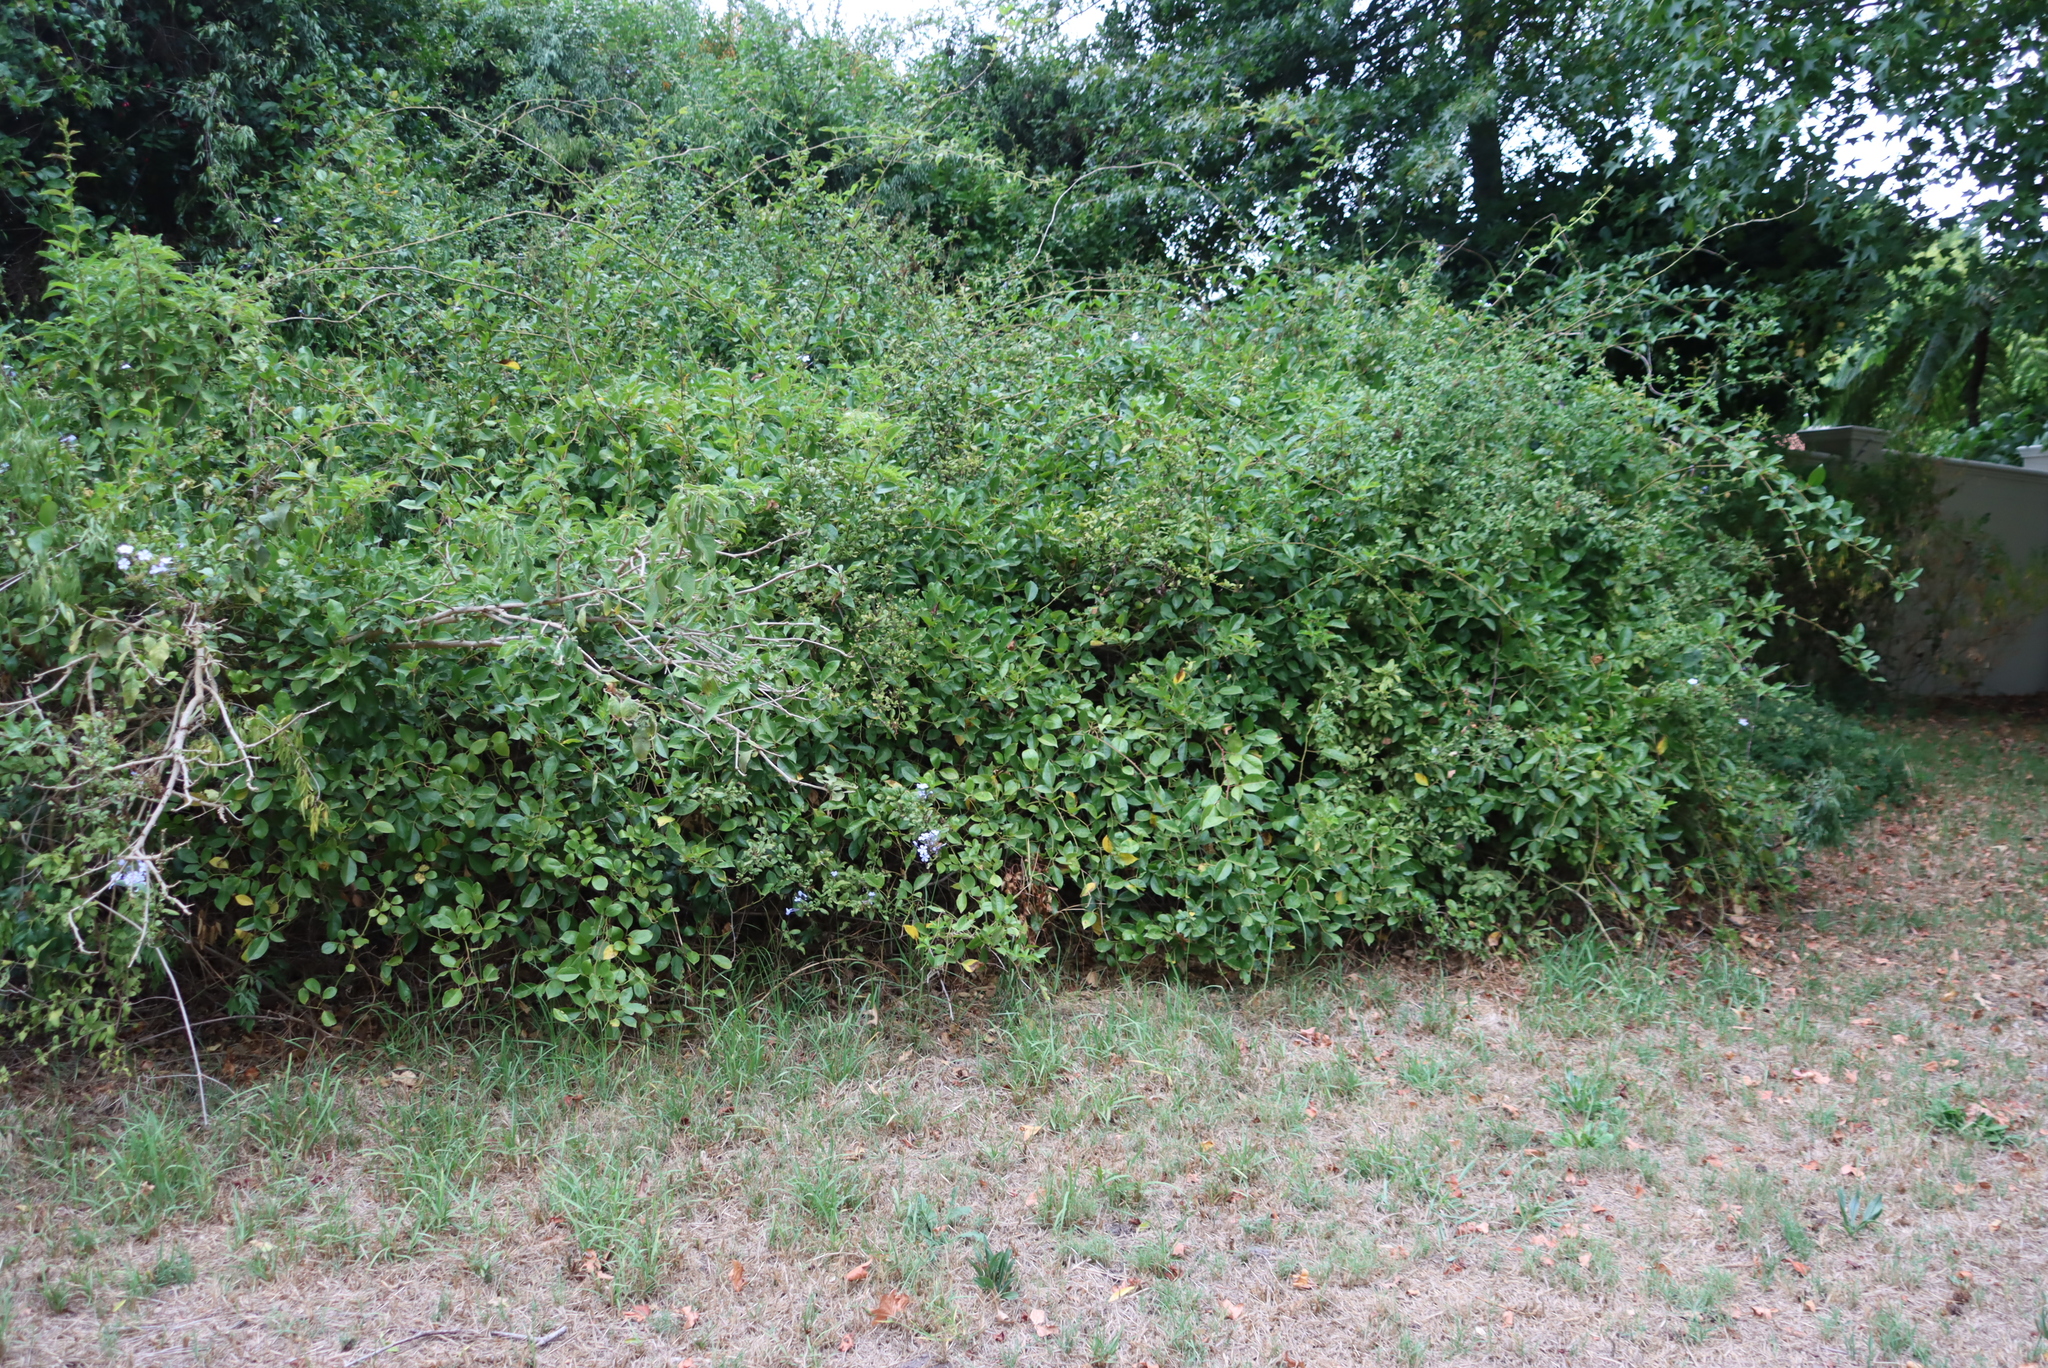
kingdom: Plantae
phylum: Tracheophyta
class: Magnoliopsida
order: Caryophyllales
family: Plumbaginaceae
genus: Plumbago
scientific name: Plumbago auriculata
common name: Cape leadwort
